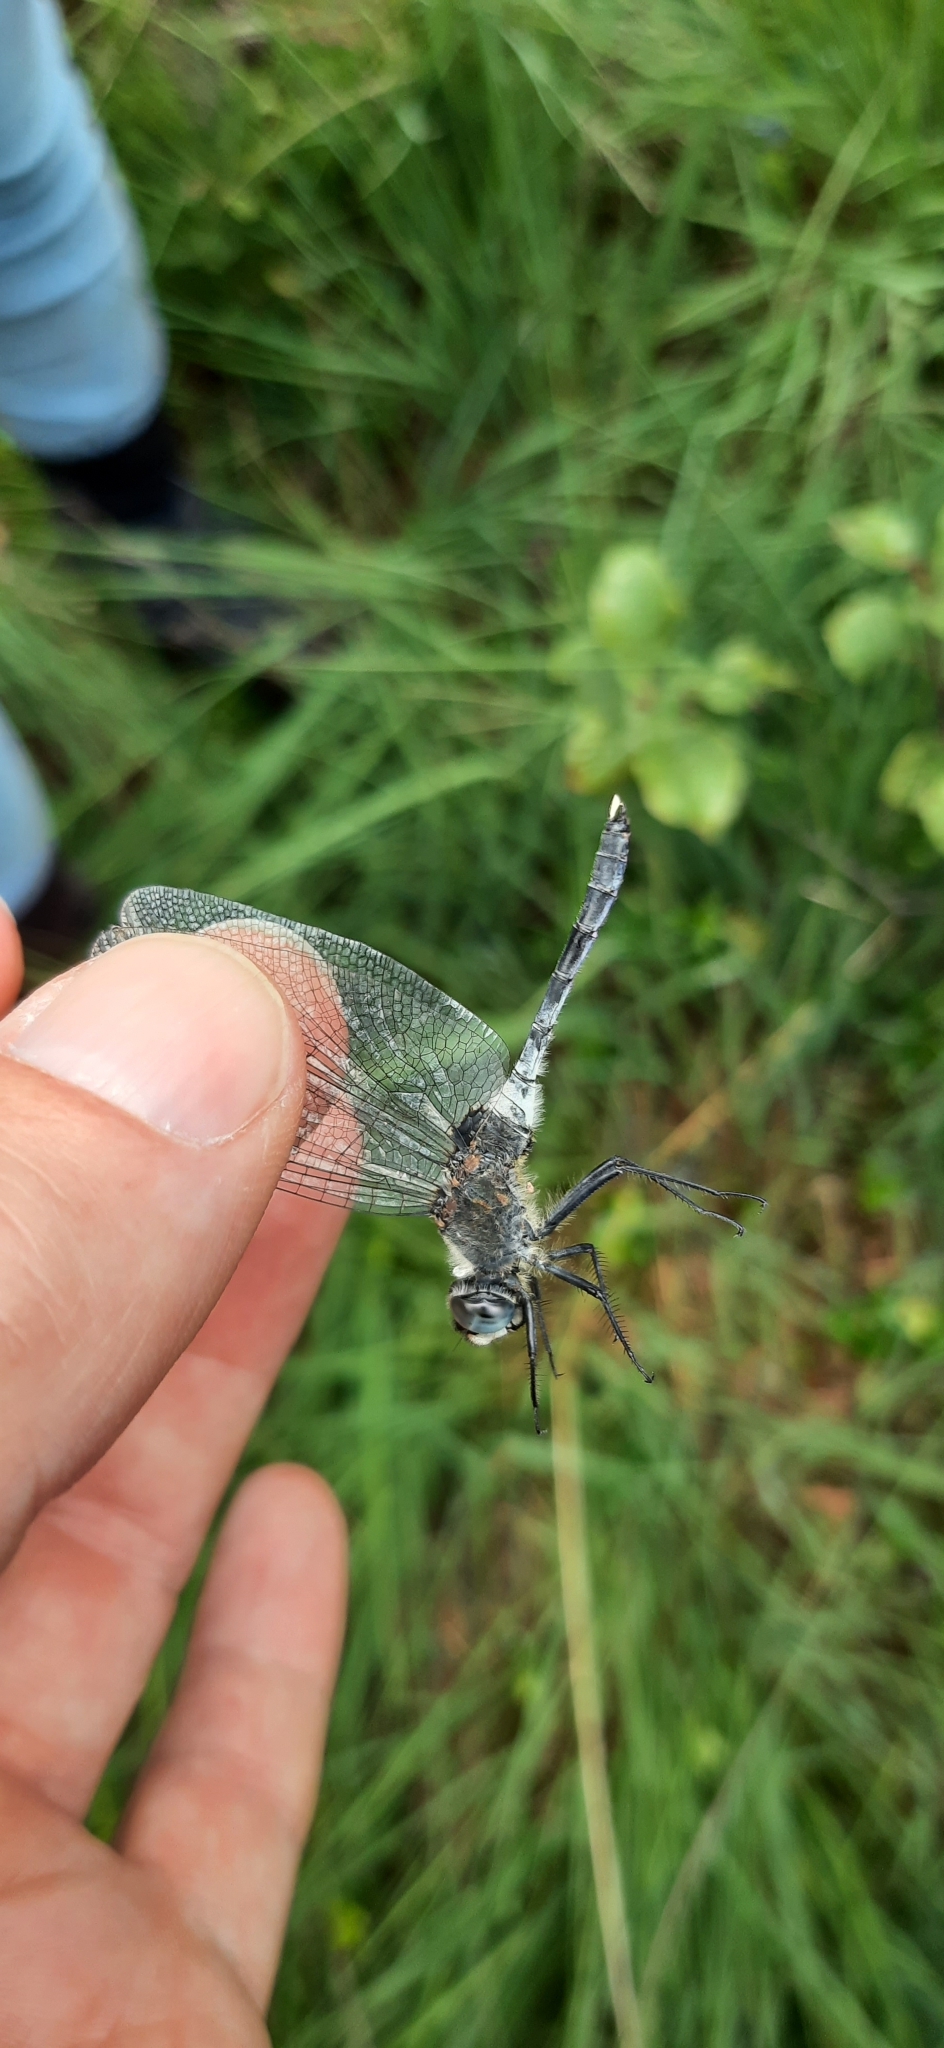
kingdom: Animalia
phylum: Arthropoda
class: Insecta
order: Odonata
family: Libellulidae
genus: Leucorrhinia
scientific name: Leucorrhinia albifrons
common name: Dark whiteface
